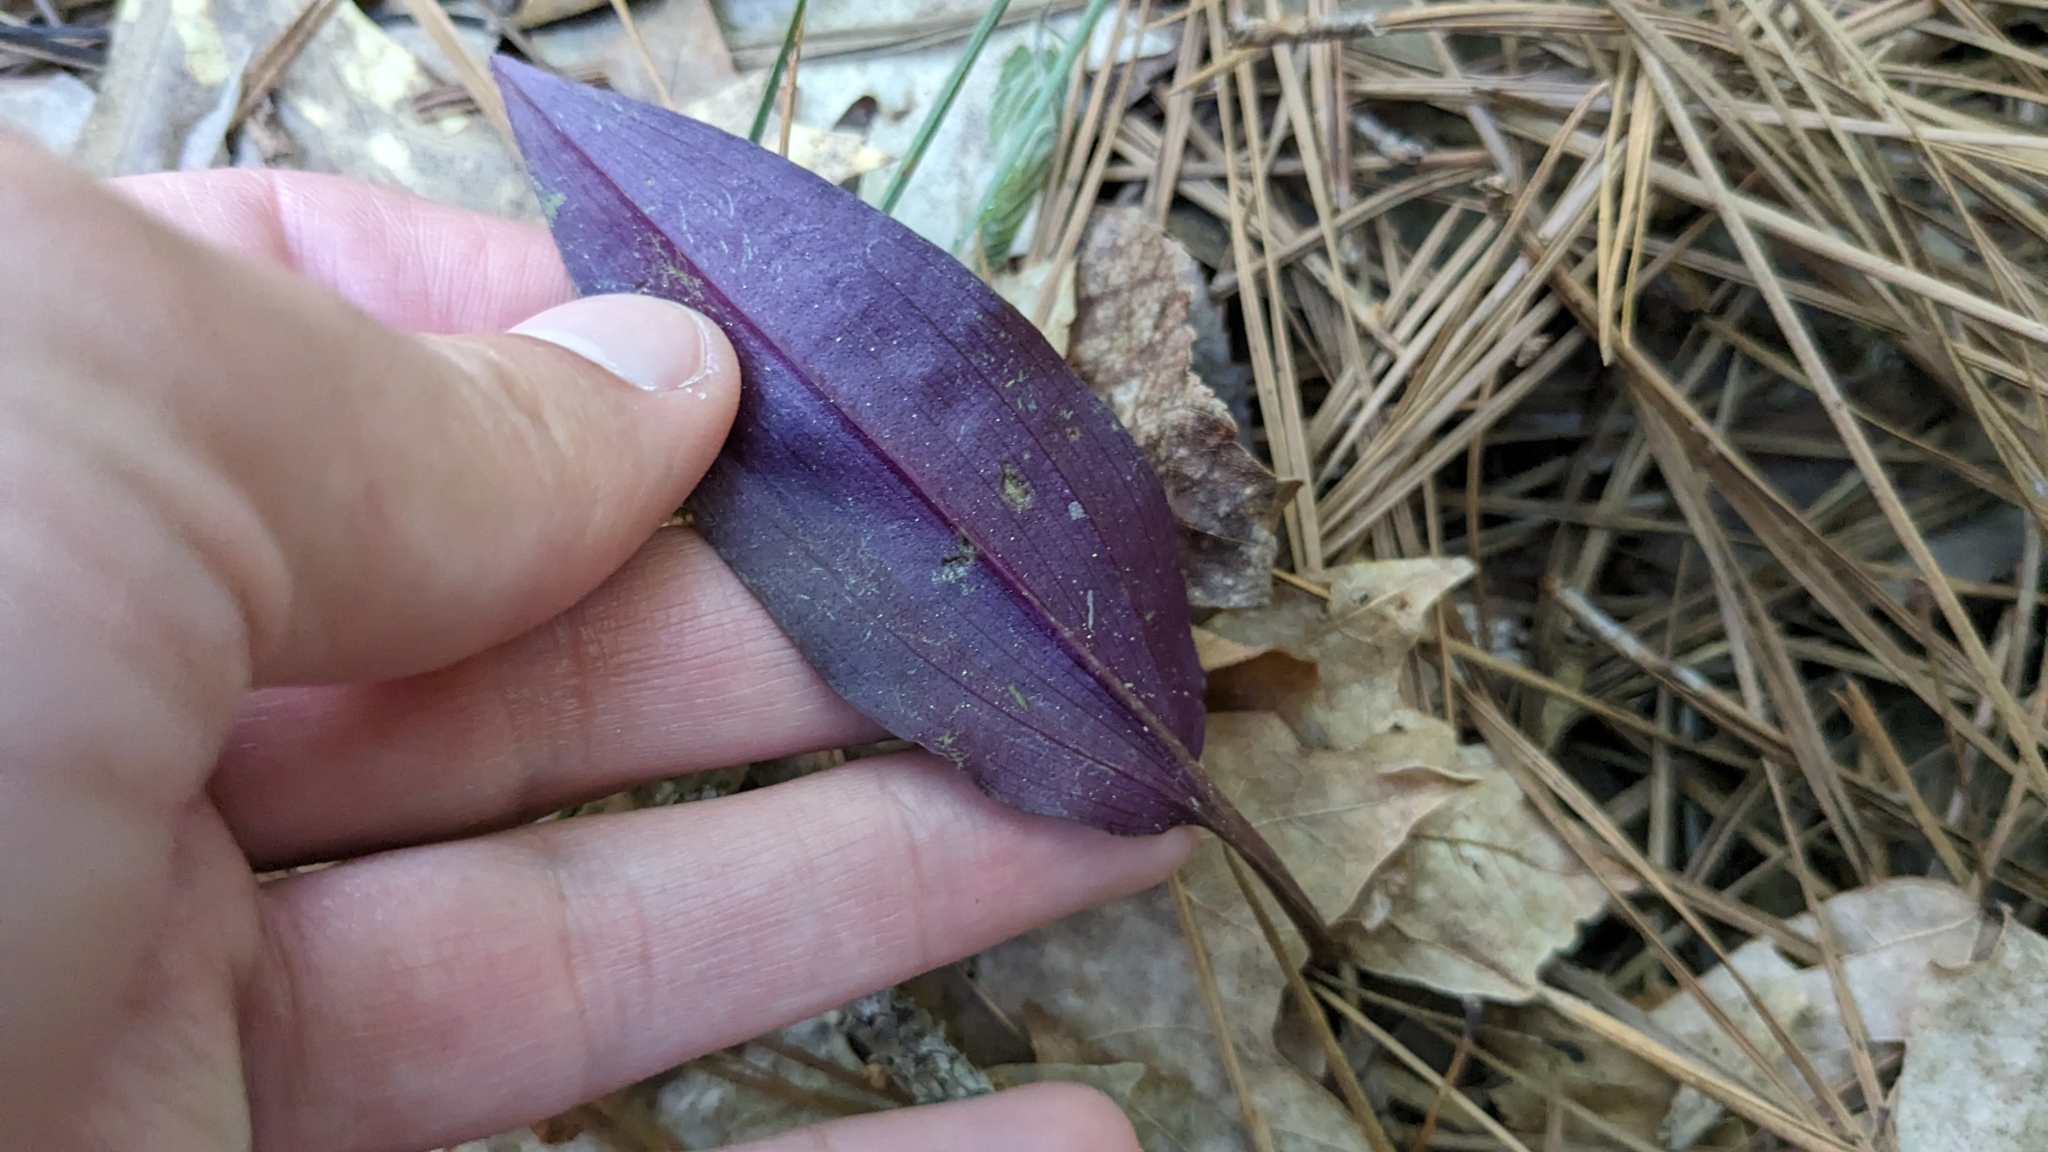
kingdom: Plantae
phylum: Tracheophyta
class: Liliopsida
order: Asparagales
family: Orchidaceae
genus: Tipularia
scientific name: Tipularia discolor
